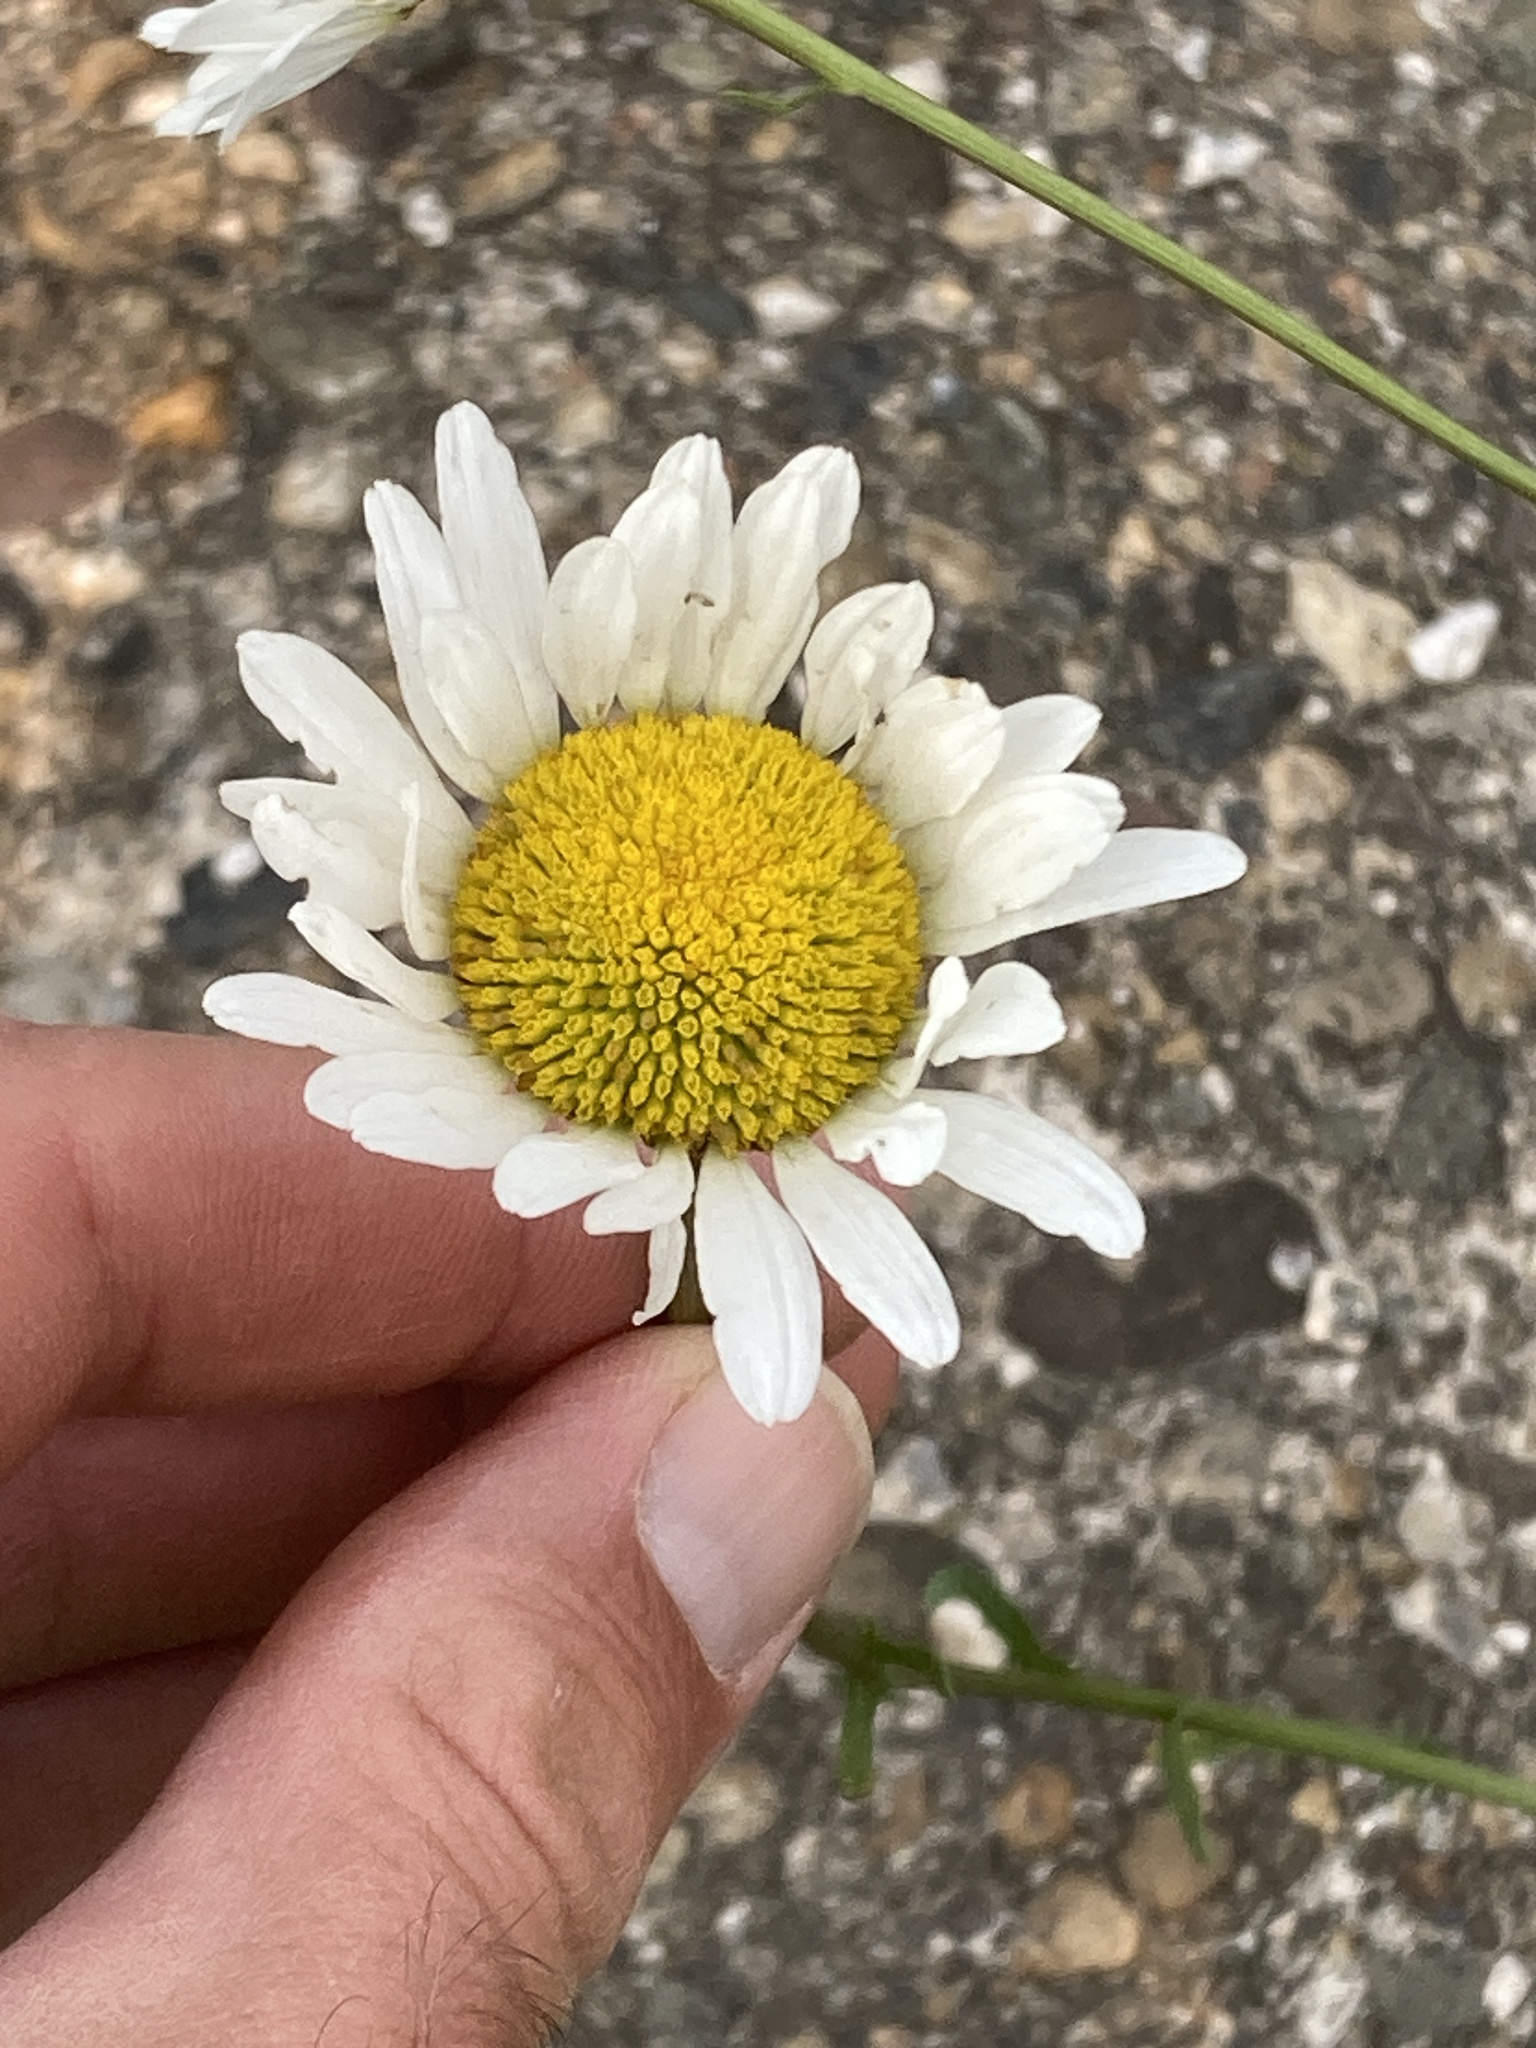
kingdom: Plantae
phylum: Tracheophyta
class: Magnoliopsida
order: Asterales
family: Asteraceae
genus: Leucanthemum
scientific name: Leucanthemum vulgare
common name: Oxeye daisy
